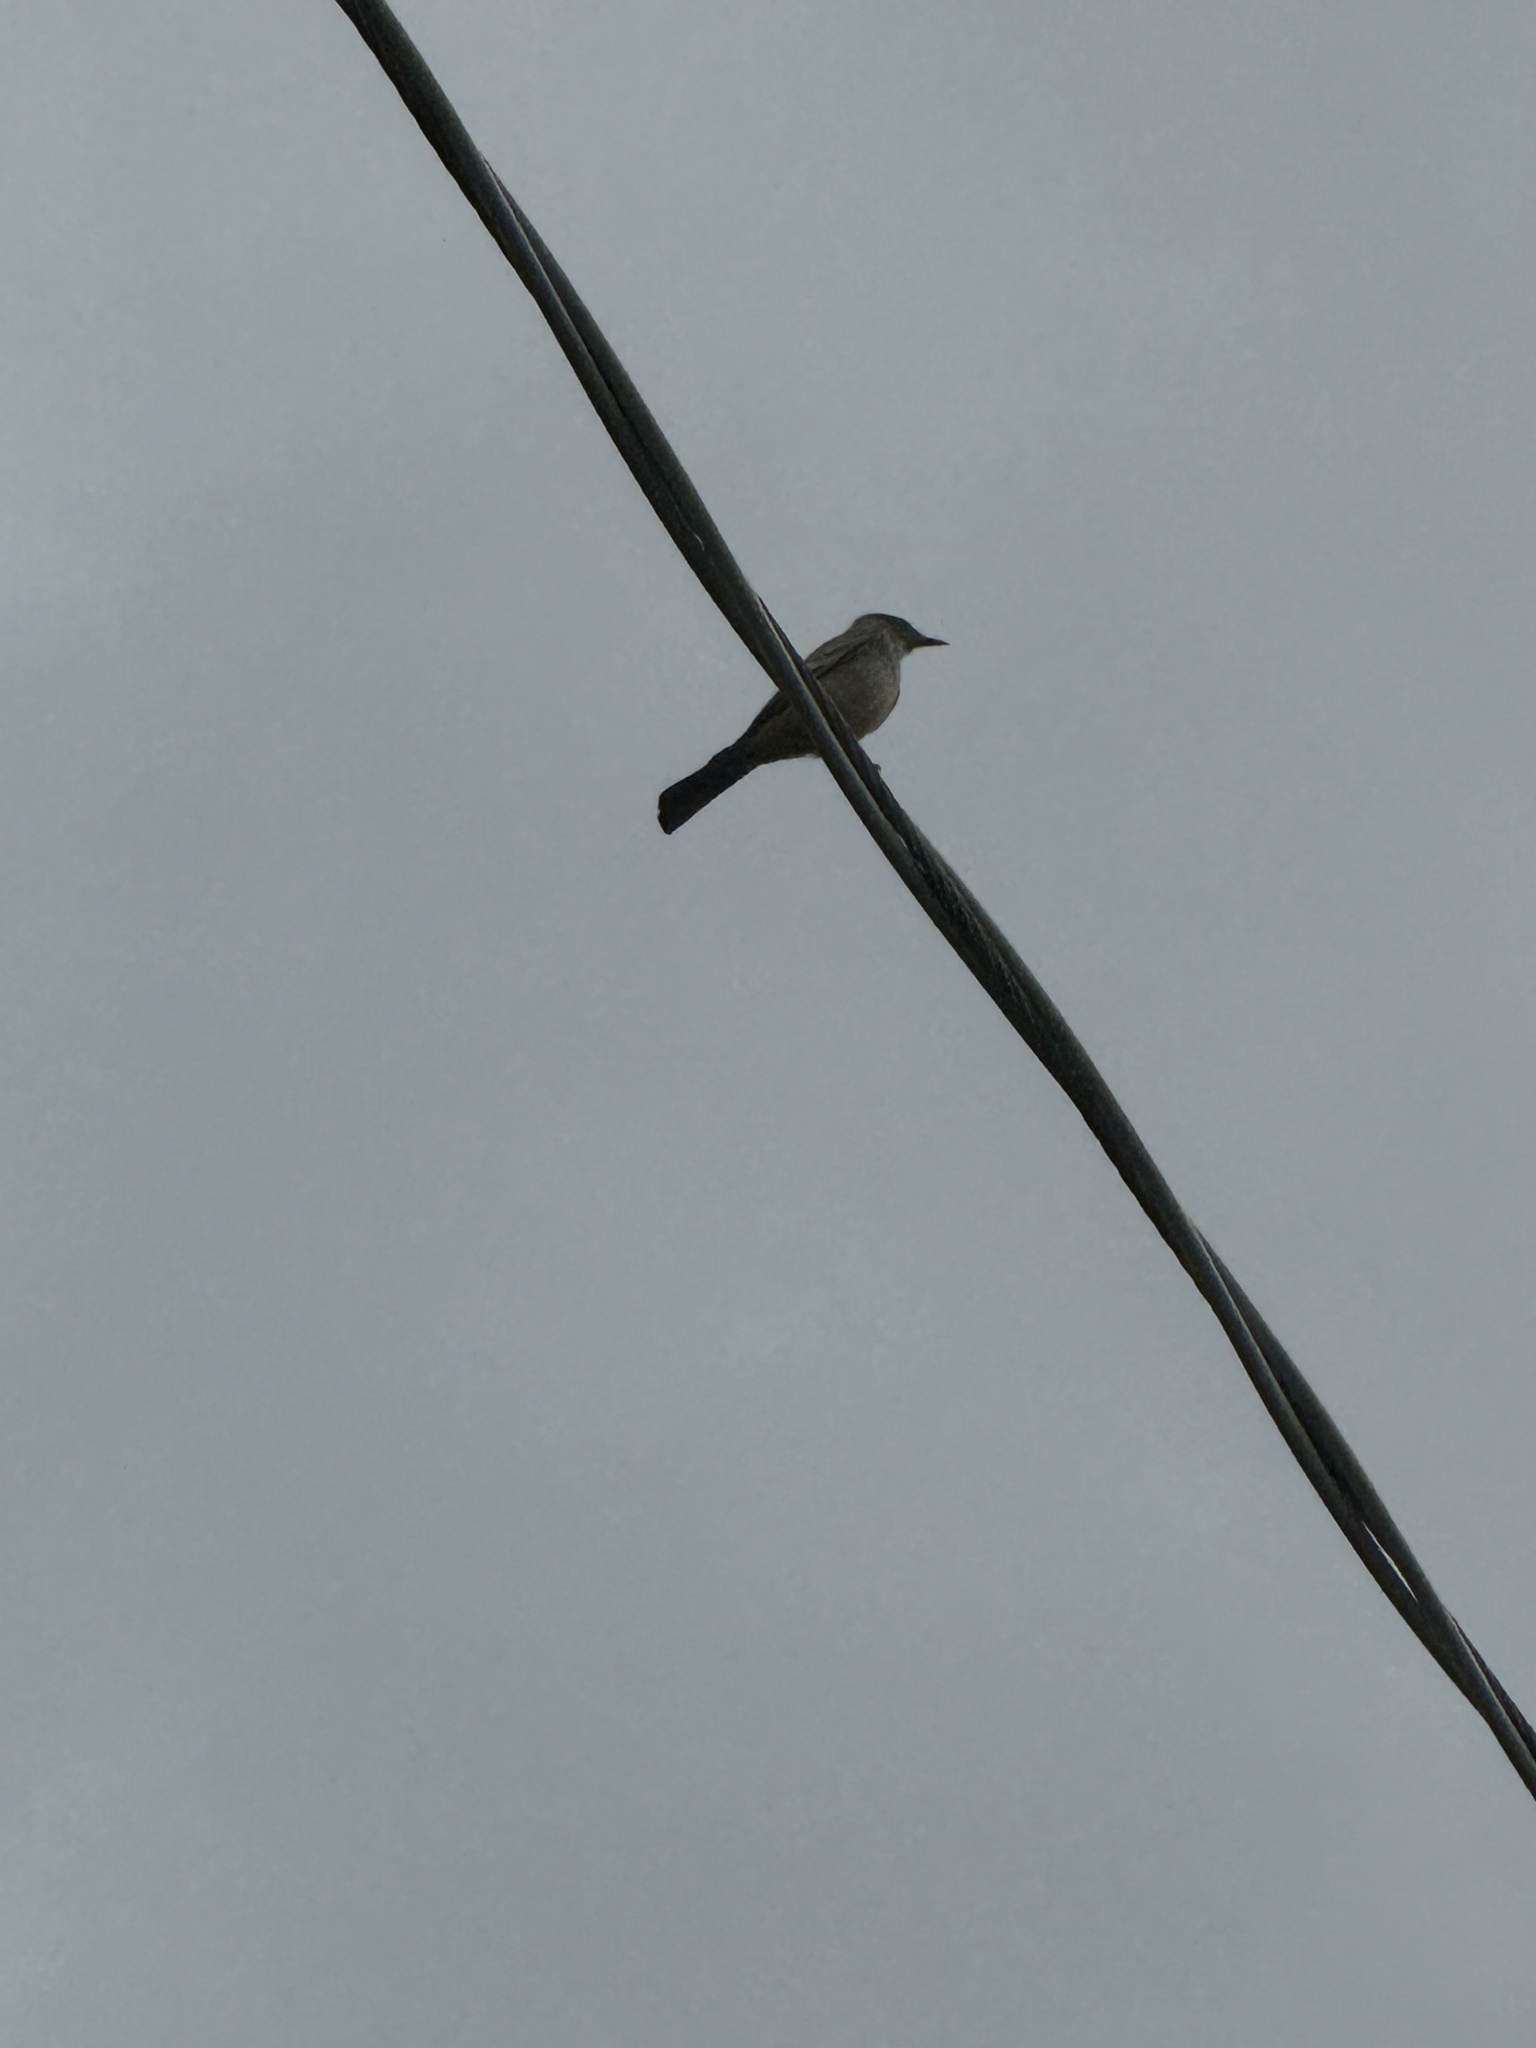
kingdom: Animalia
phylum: Chordata
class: Aves
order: Passeriformes
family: Tyrannidae
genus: Sayornis
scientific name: Sayornis saya
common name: Say's phoebe
